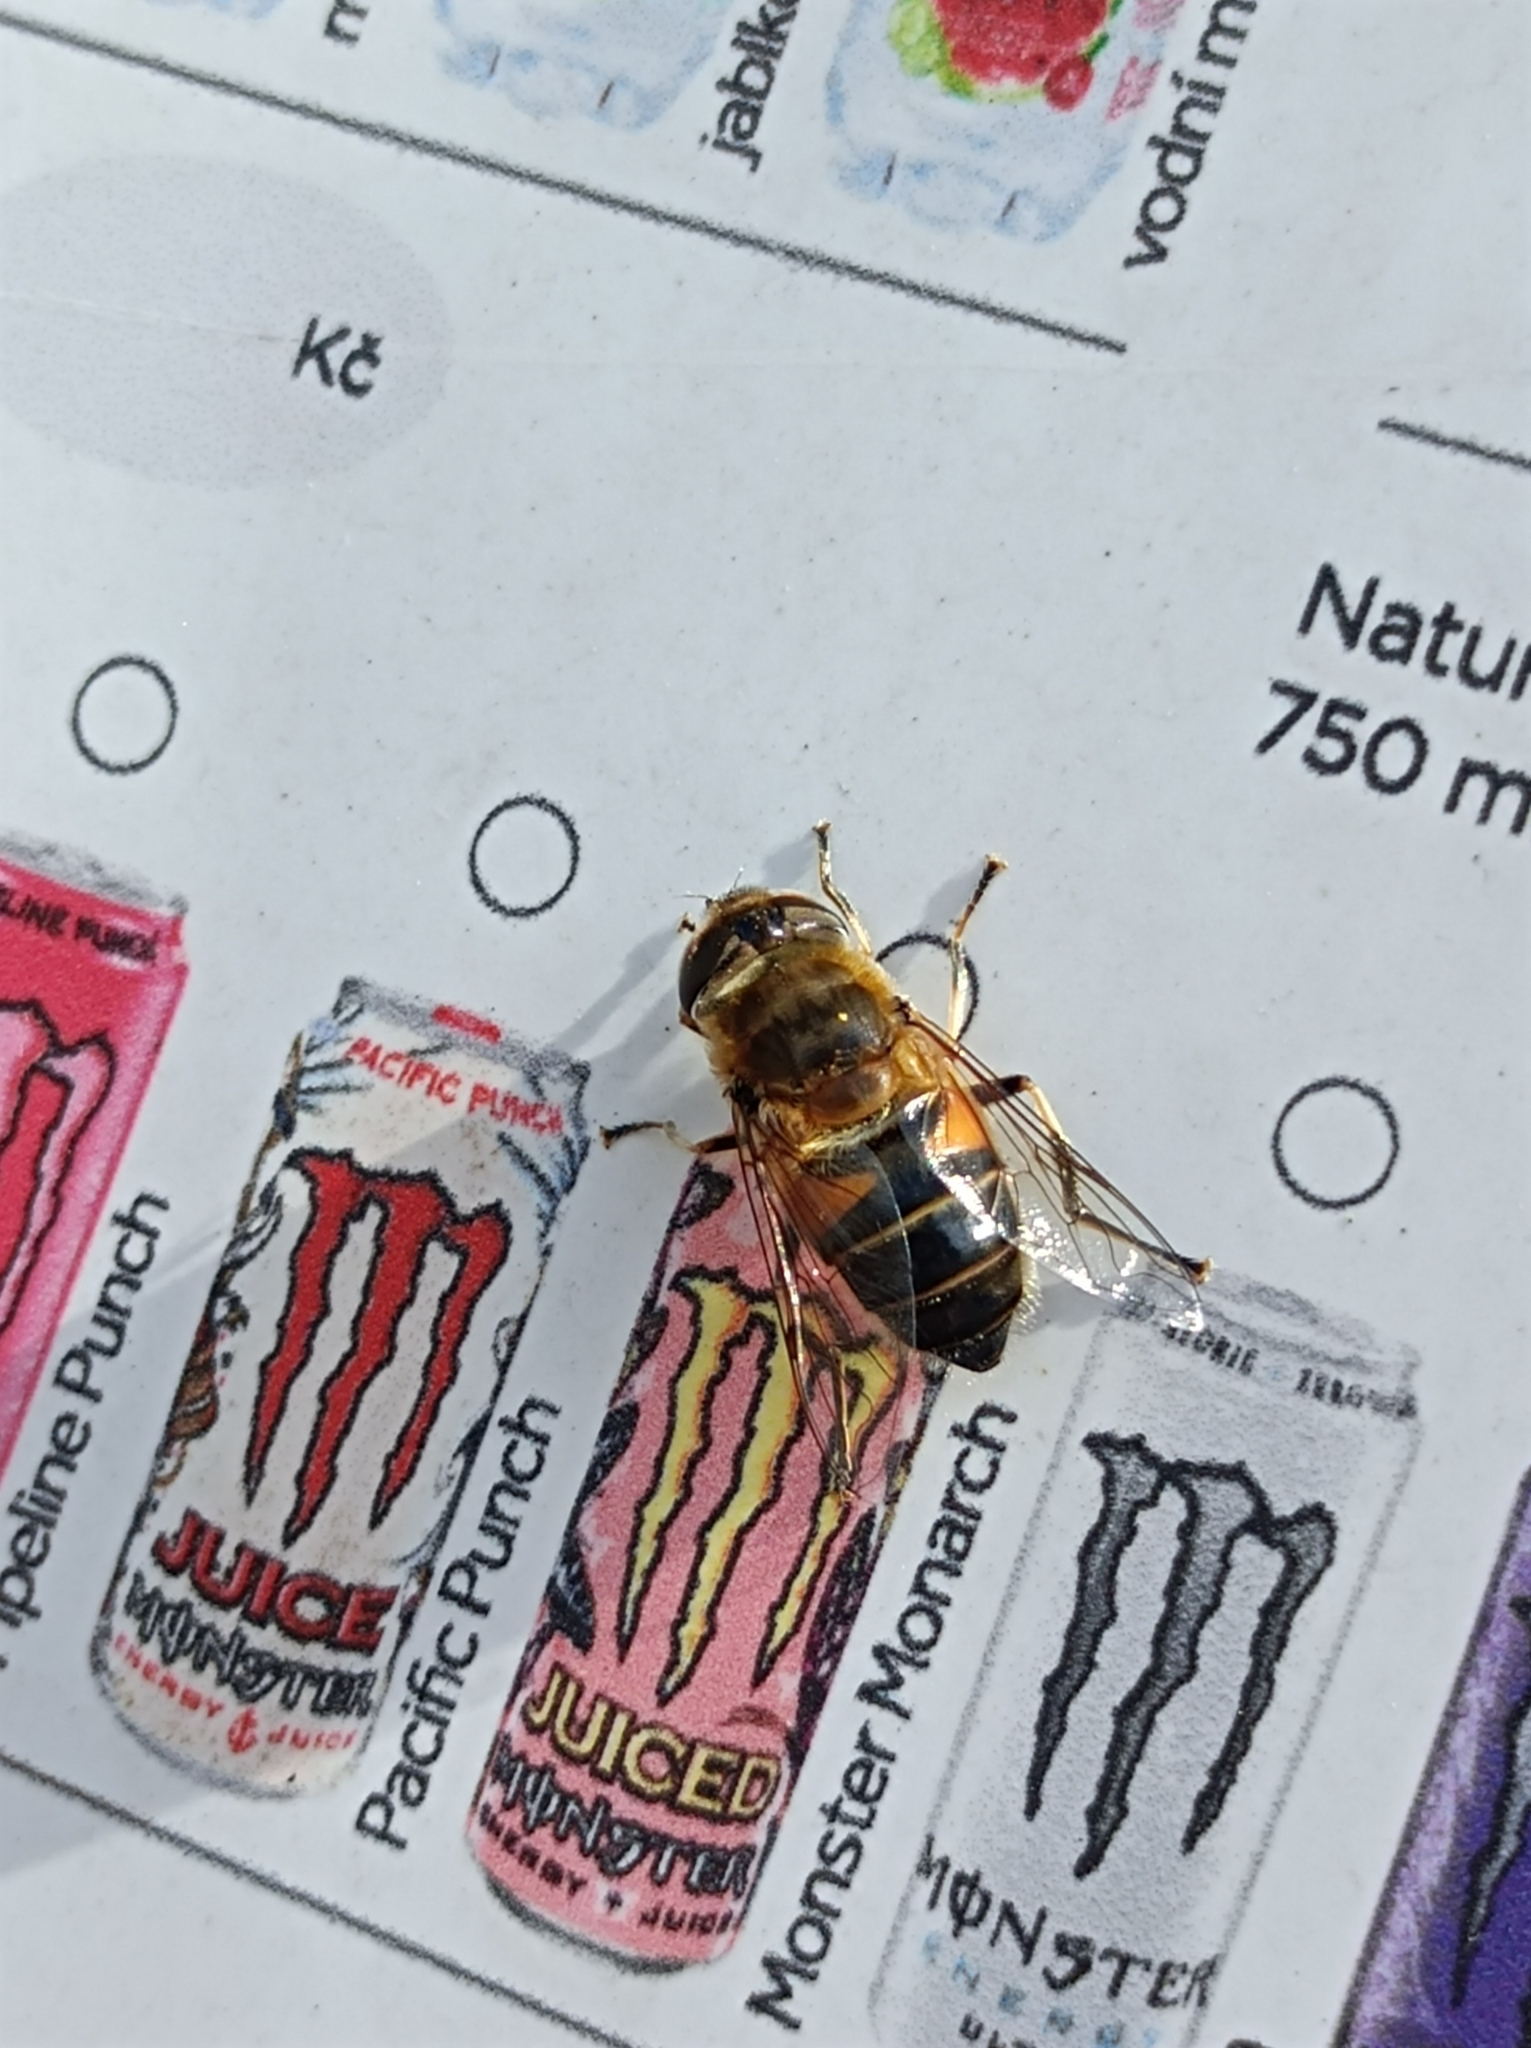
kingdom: Animalia
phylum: Arthropoda
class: Insecta
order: Diptera
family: Syrphidae
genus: Eristalis
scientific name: Eristalis pertinax
